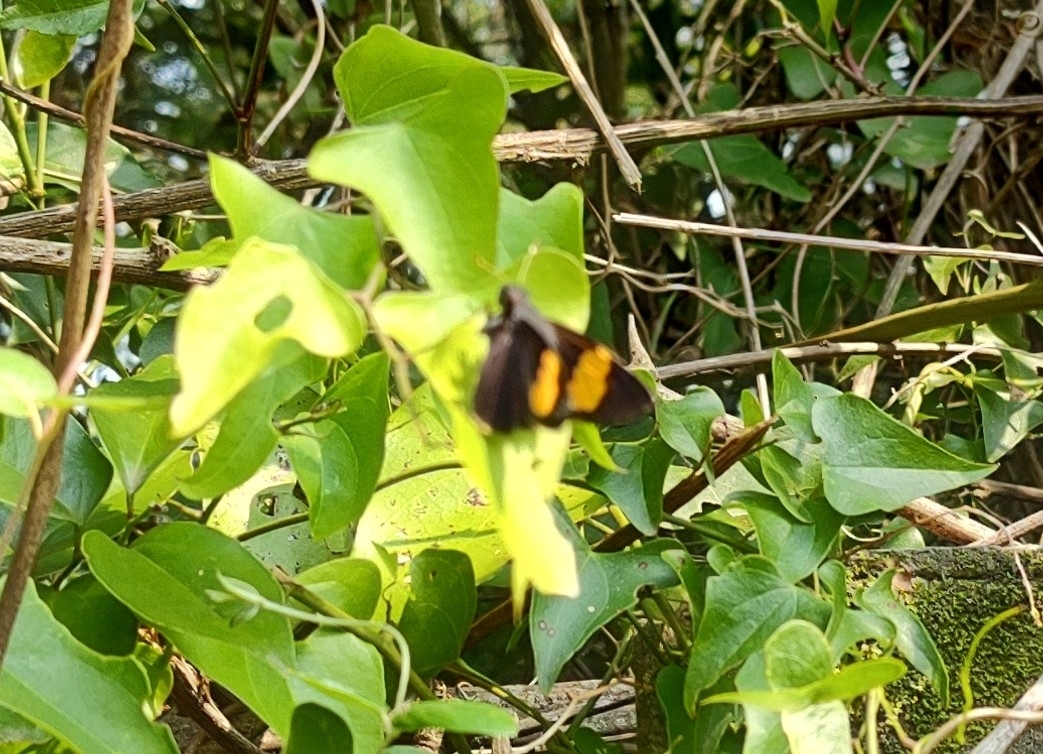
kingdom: Animalia
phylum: Arthropoda
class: Insecta
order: Lepidoptera
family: Hesperiidae
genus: Lychnuchoides
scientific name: Lychnuchoides ozias
